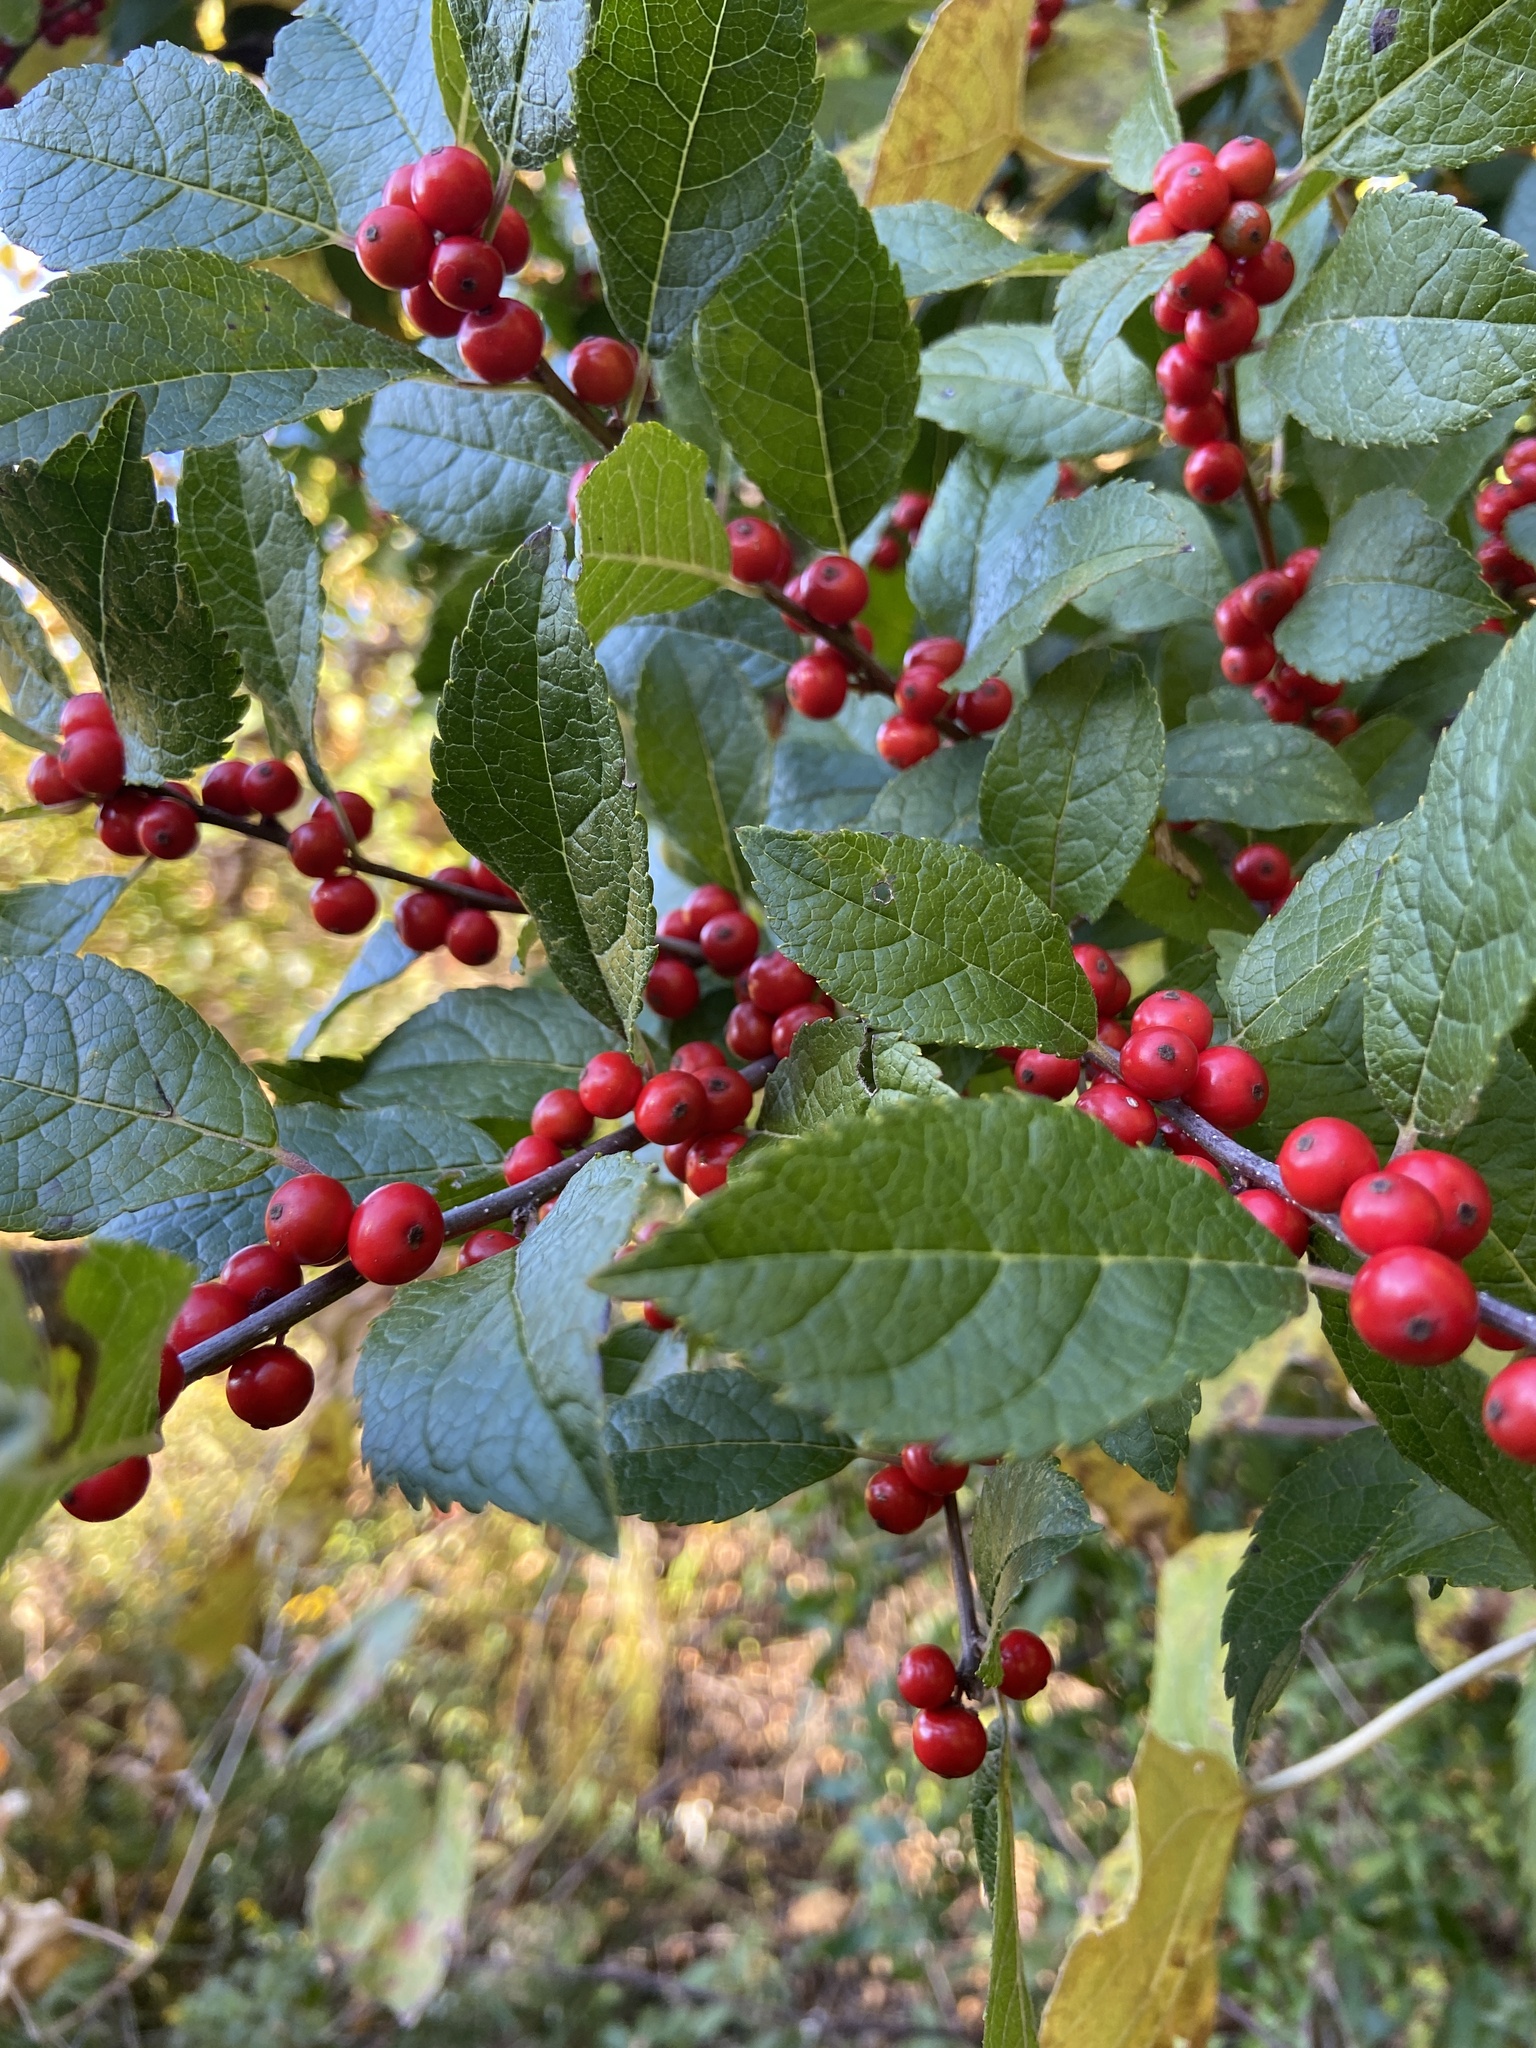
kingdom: Plantae
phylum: Tracheophyta
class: Magnoliopsida
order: Aquifoliales
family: Aquifoliaceae
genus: Ilex
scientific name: Ilex verticillata
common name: Virginia winterberry
